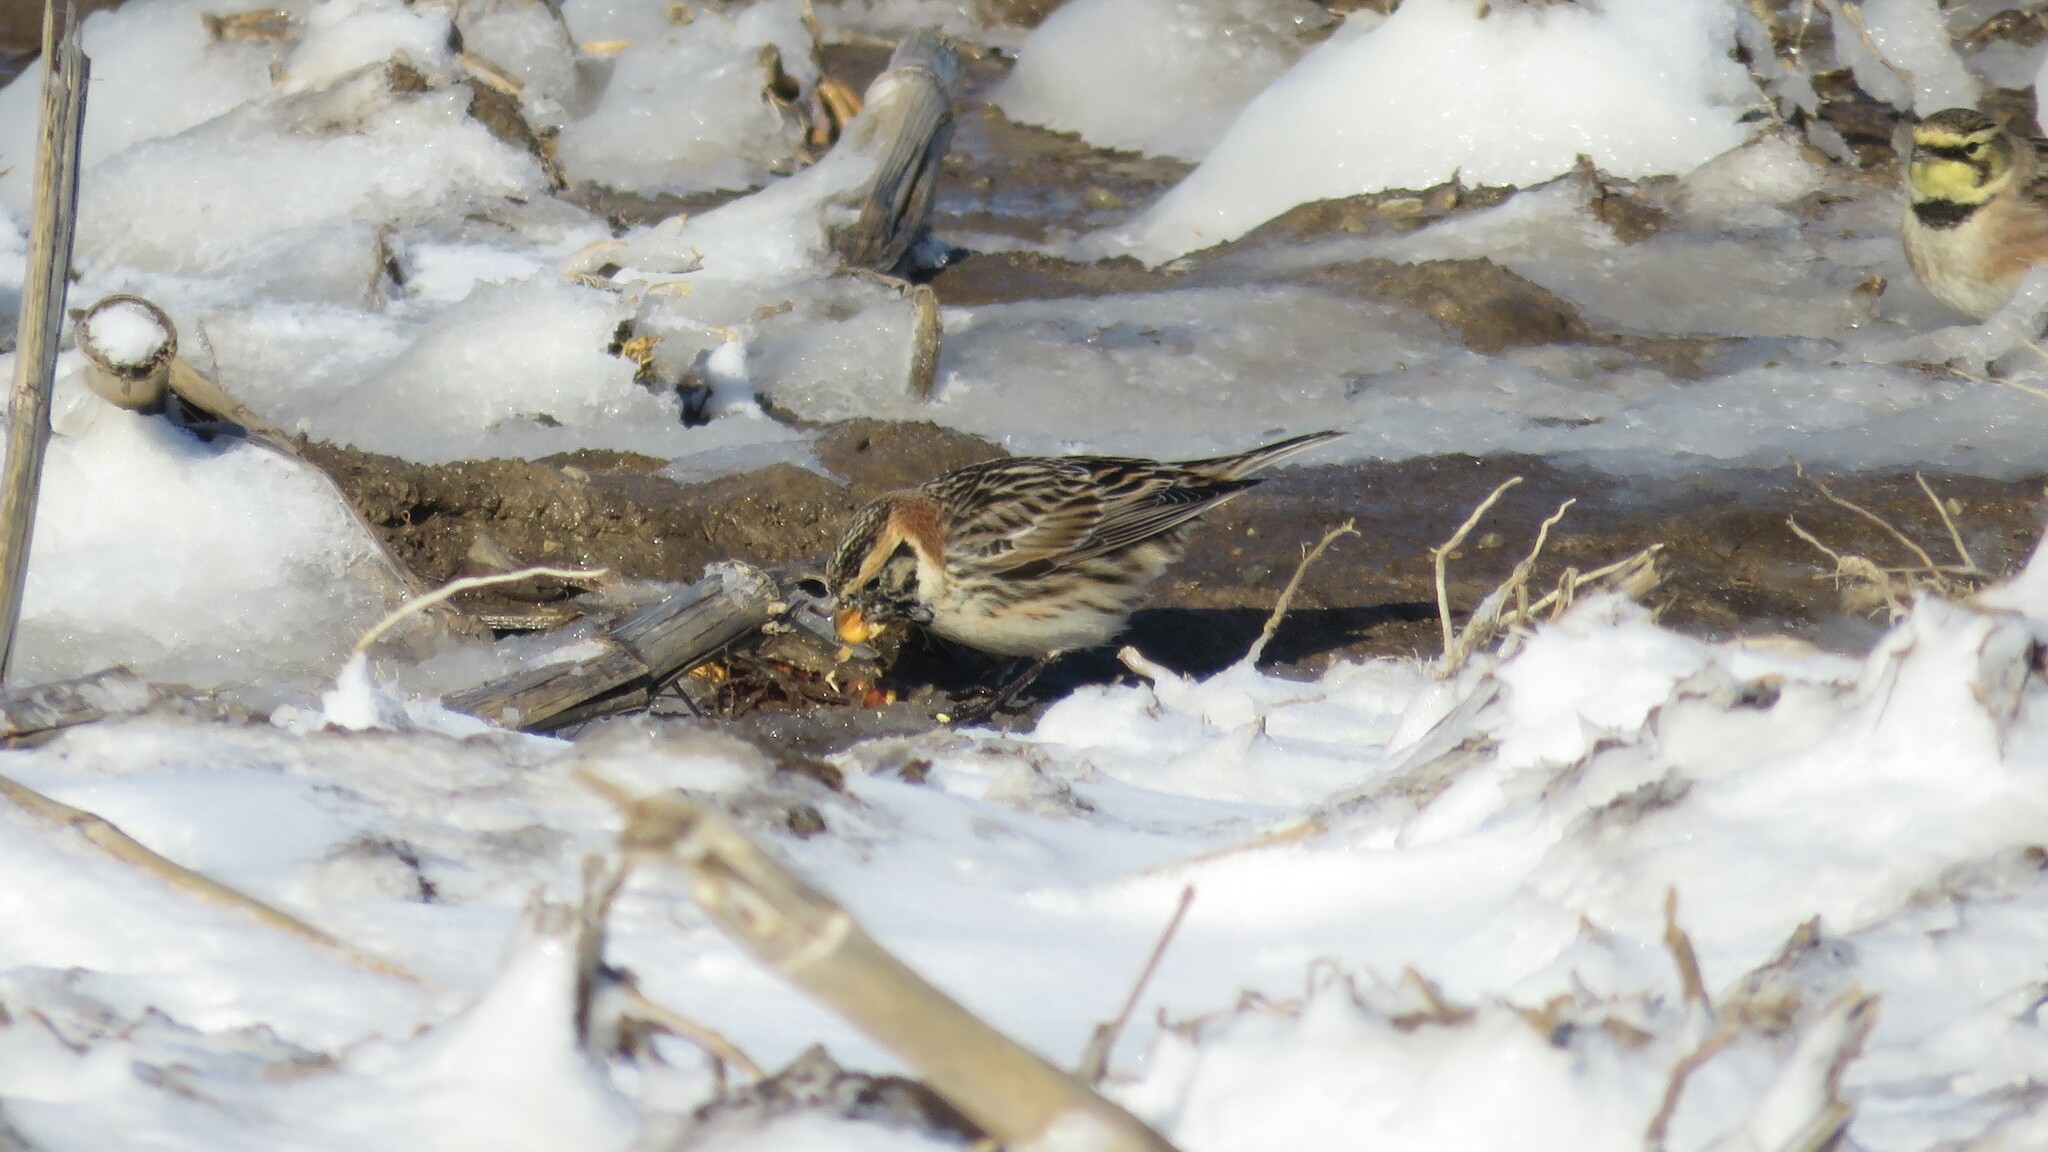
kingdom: Animalia
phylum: Chordata
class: Aves
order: Passeriformes
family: Calcariidae
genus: Calcarius
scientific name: Calcarius lapponicus
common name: Lapland longspur
